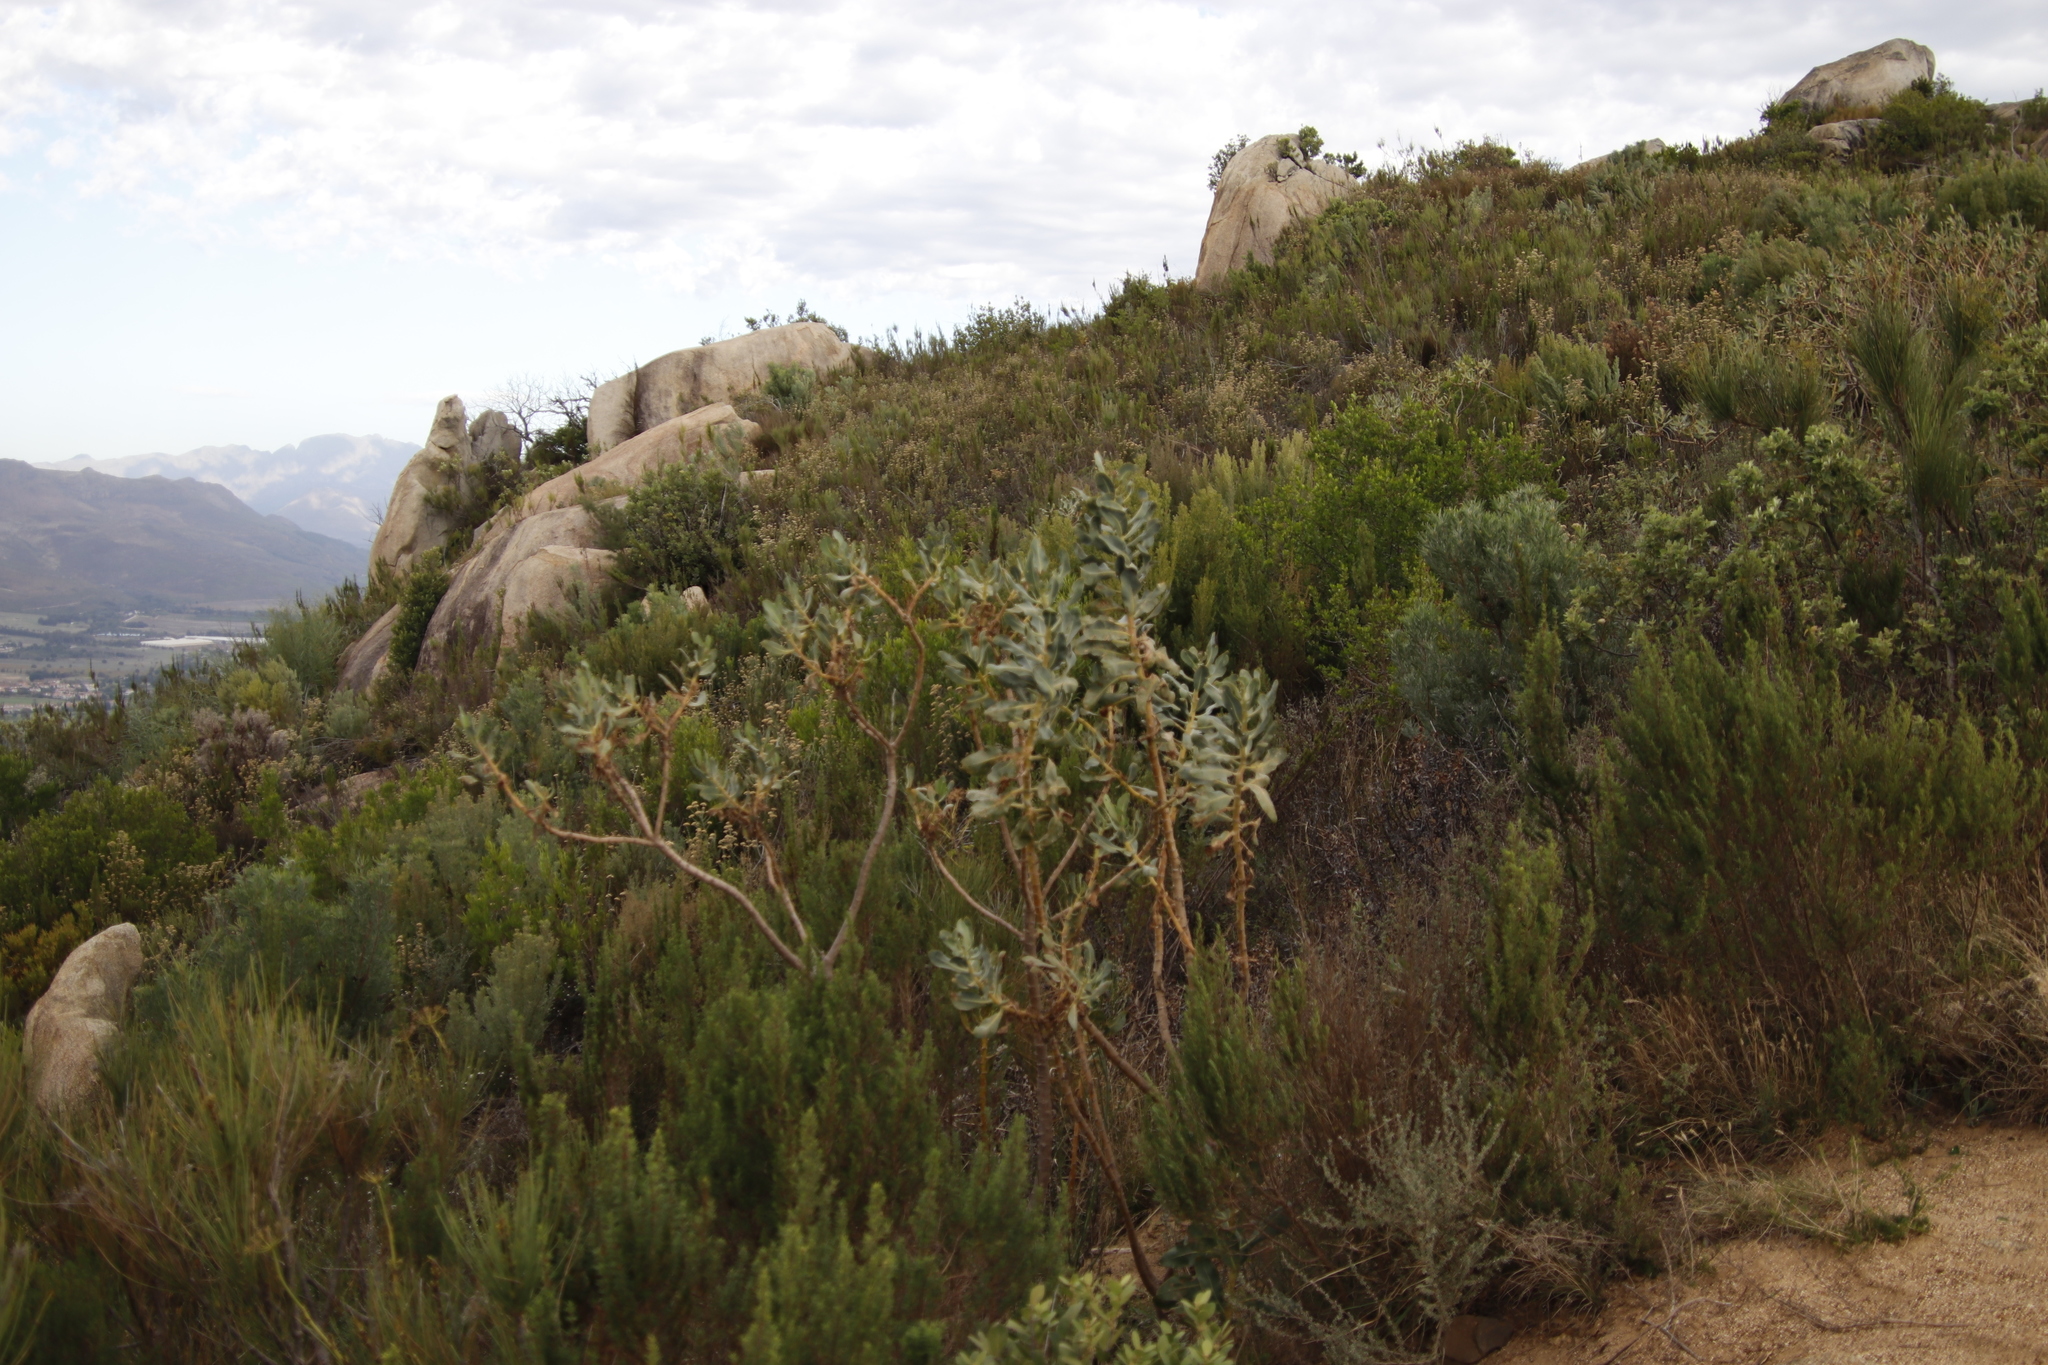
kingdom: Plantae
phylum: Tracheophyta
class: Magnoliopsida
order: Asterales
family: Asteraceae
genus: Othonna
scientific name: Othonna parviflora
